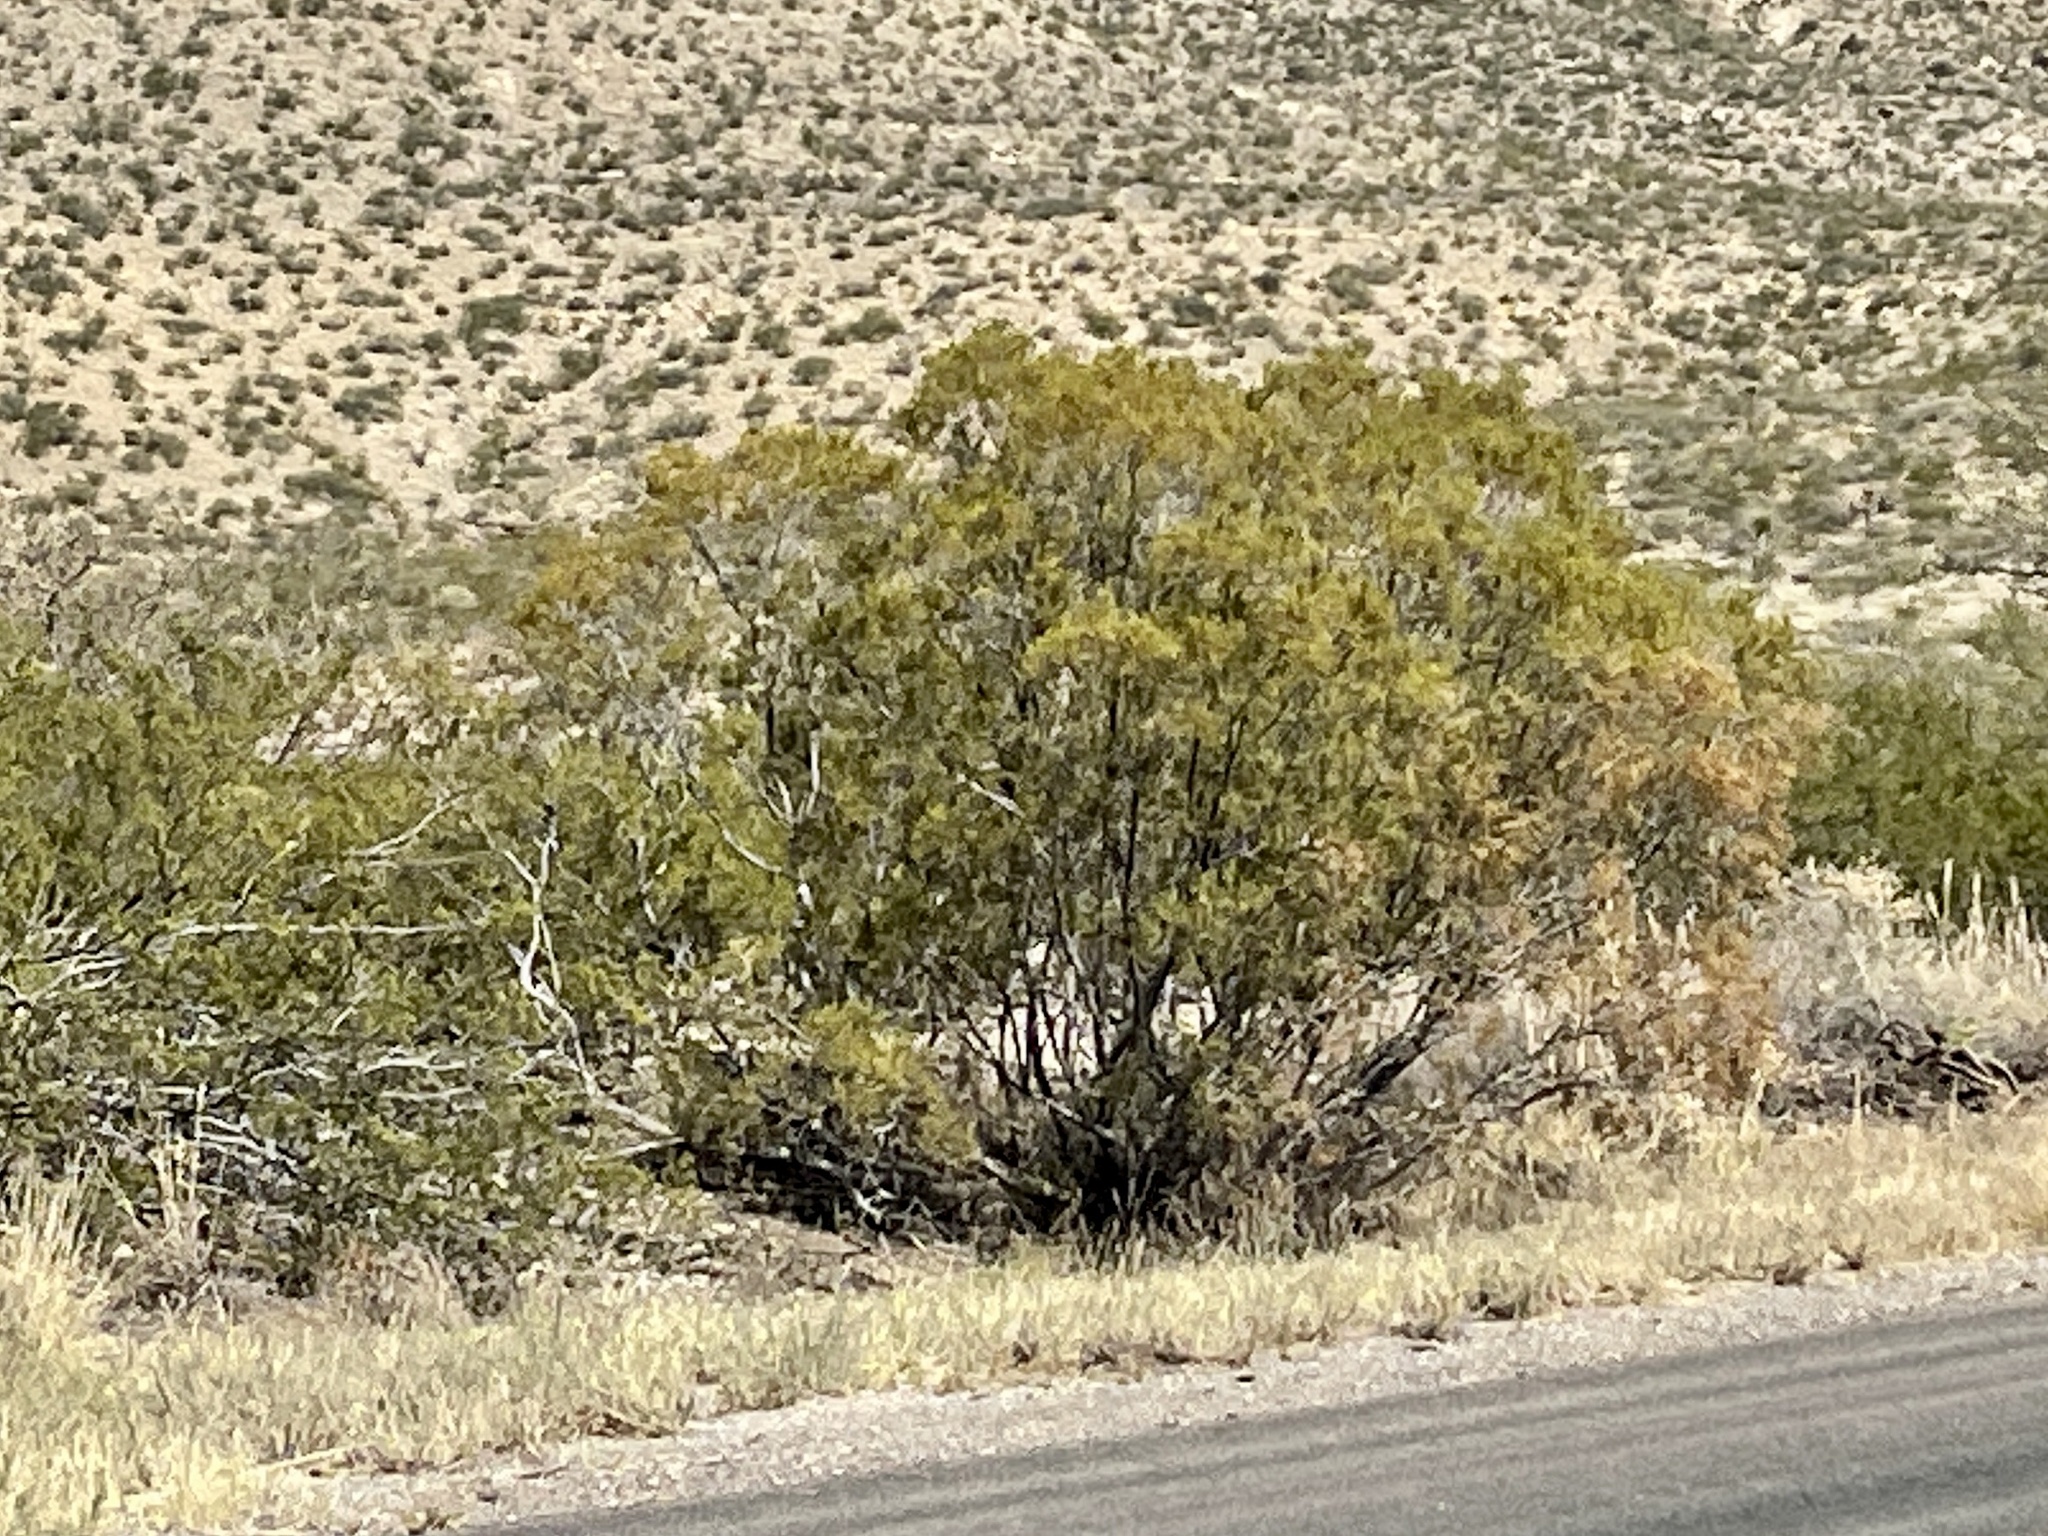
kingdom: Plantae
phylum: Tracheophyta
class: Magnoliopsida
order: Zygophyllales
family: Zygophyllaceae
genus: Larrea
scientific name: Larrea tridentata
